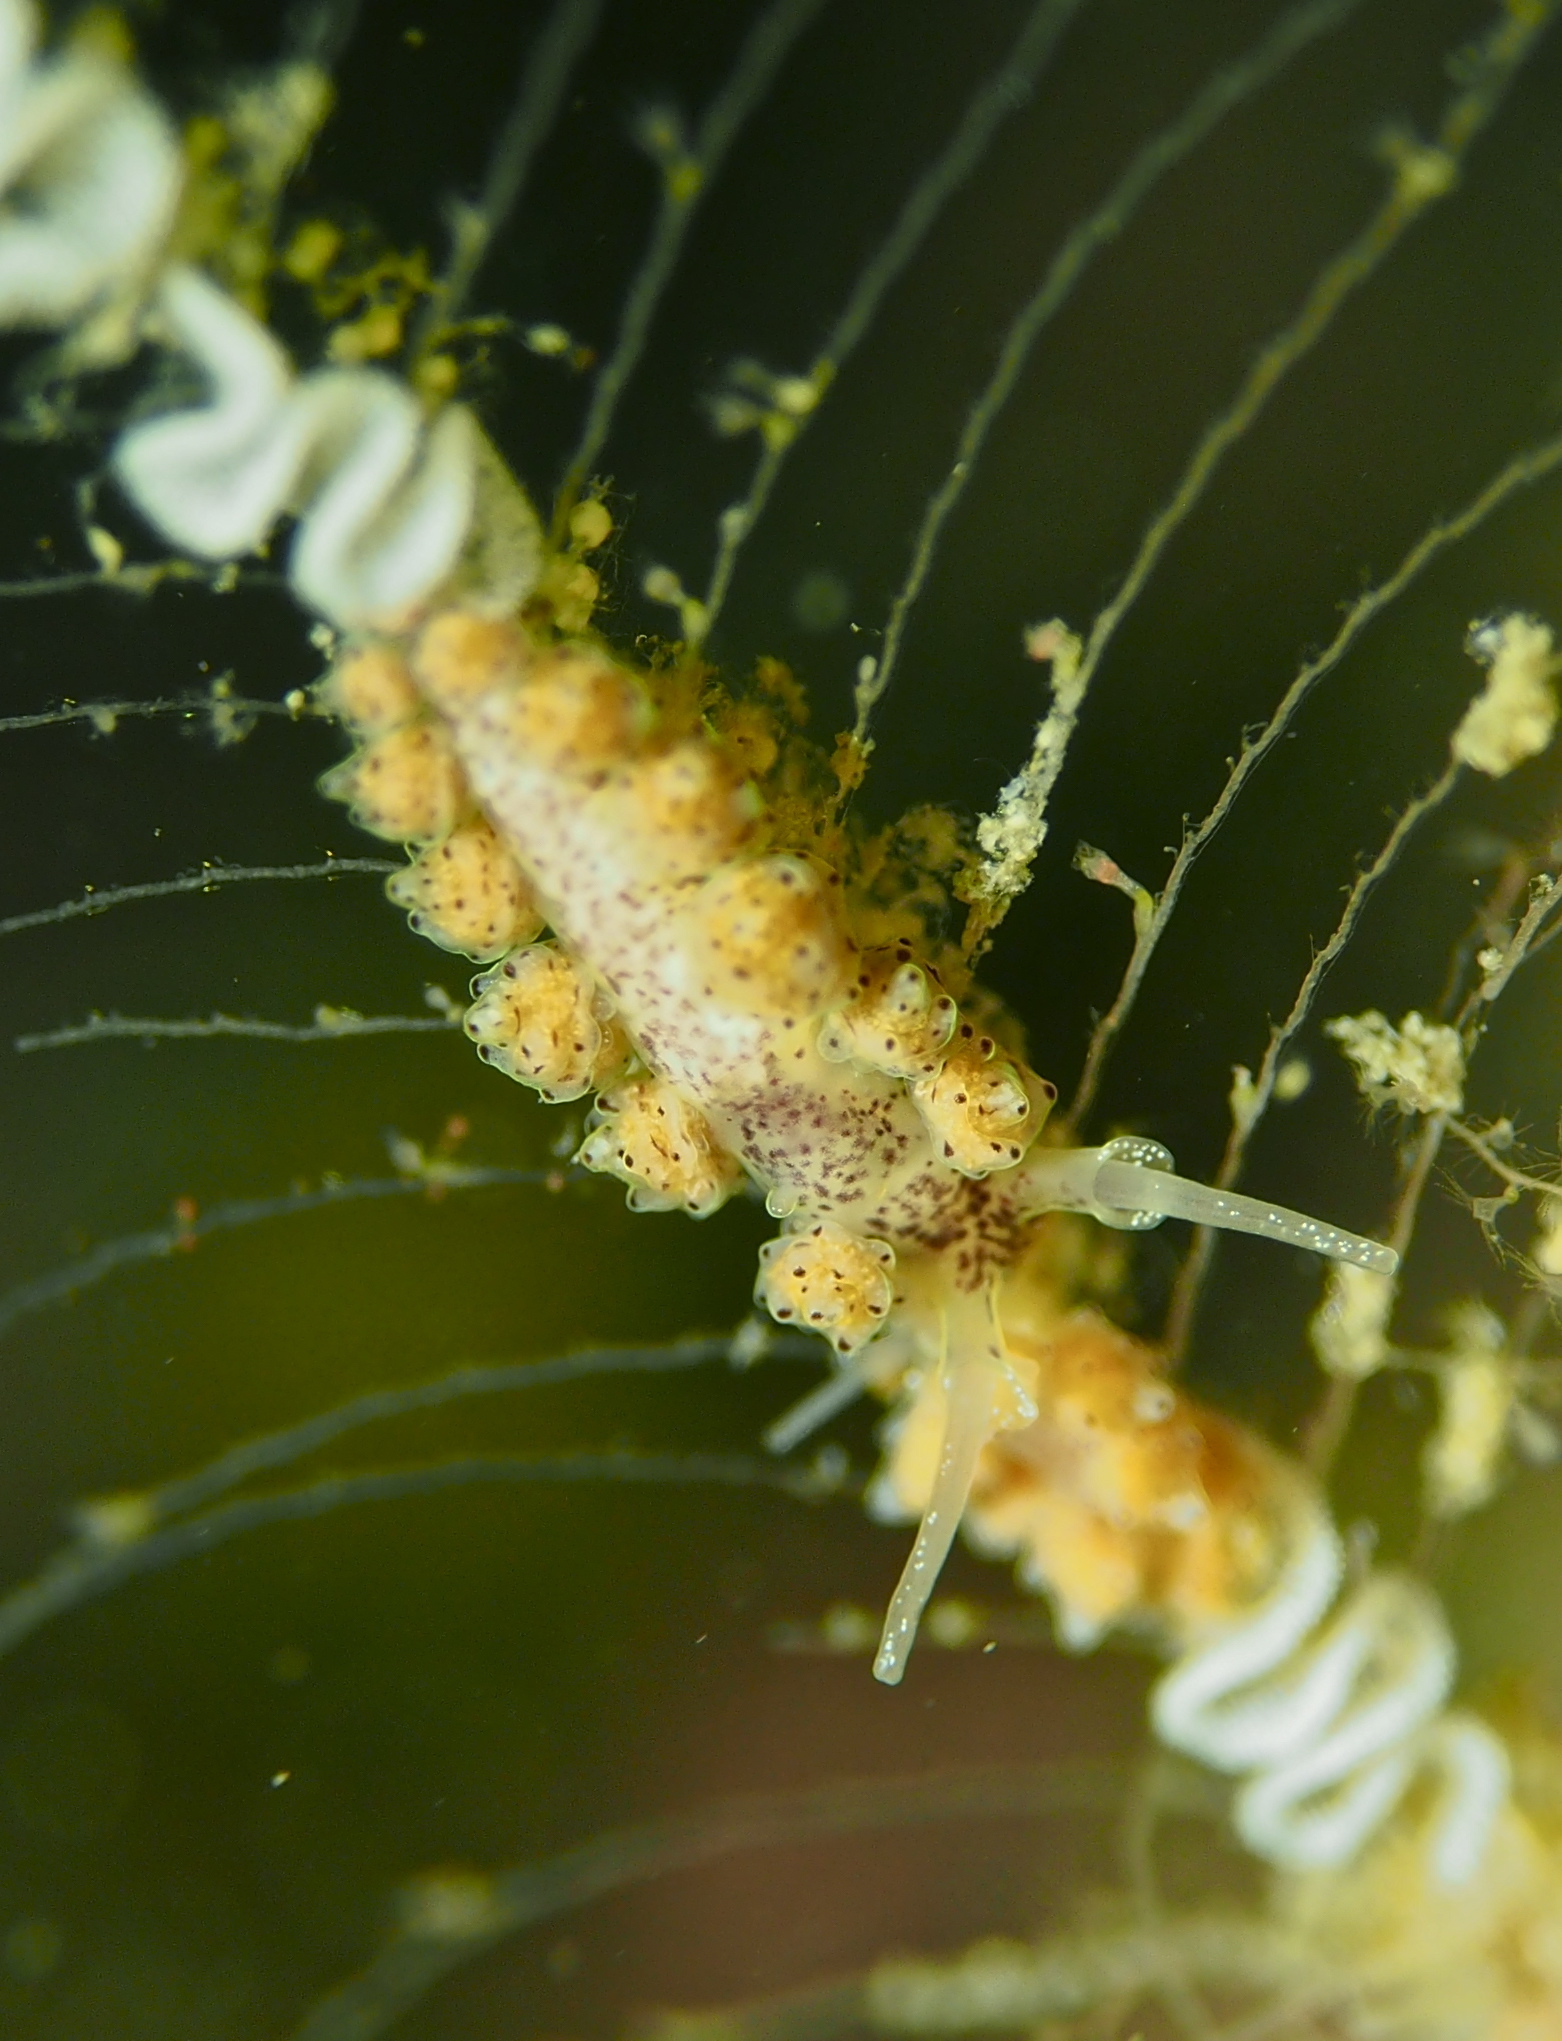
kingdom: Animalia
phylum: Mollusca
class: Gastropoda
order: Nudibranchia
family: Dotidae
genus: Doto
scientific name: Doto dunnei
